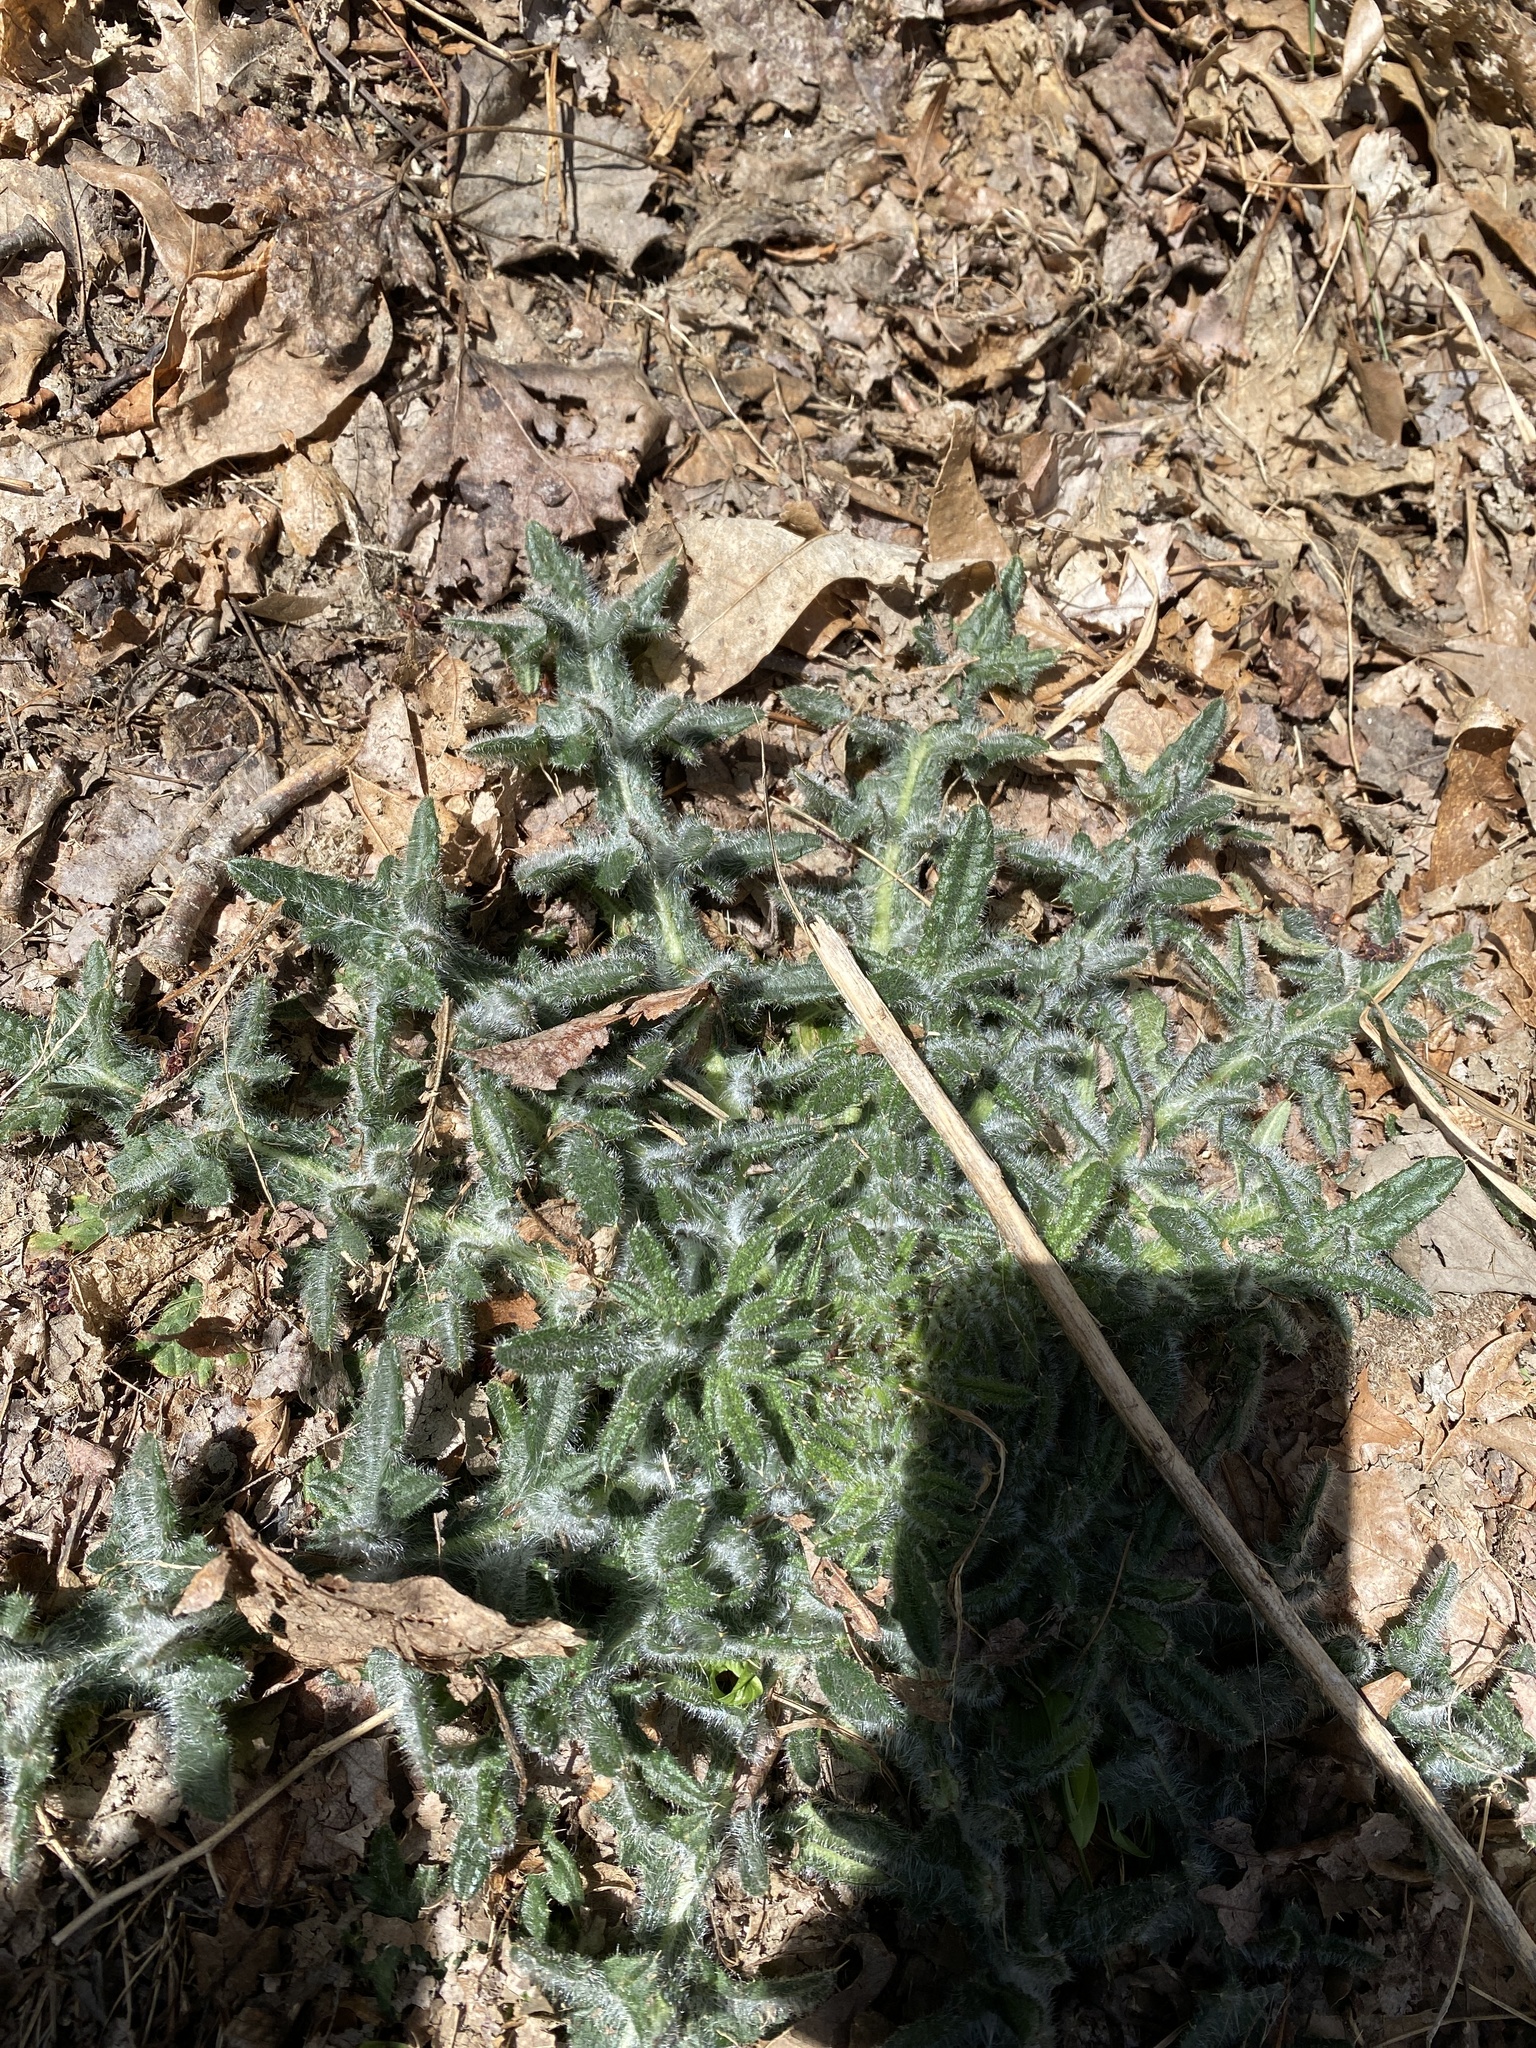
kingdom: Plantae
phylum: Tracheophyta
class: Magnoliopsida
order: Asterales
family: Asteraceae
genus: Cirsium
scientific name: Cirsium vulgare
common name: Bull thistle
